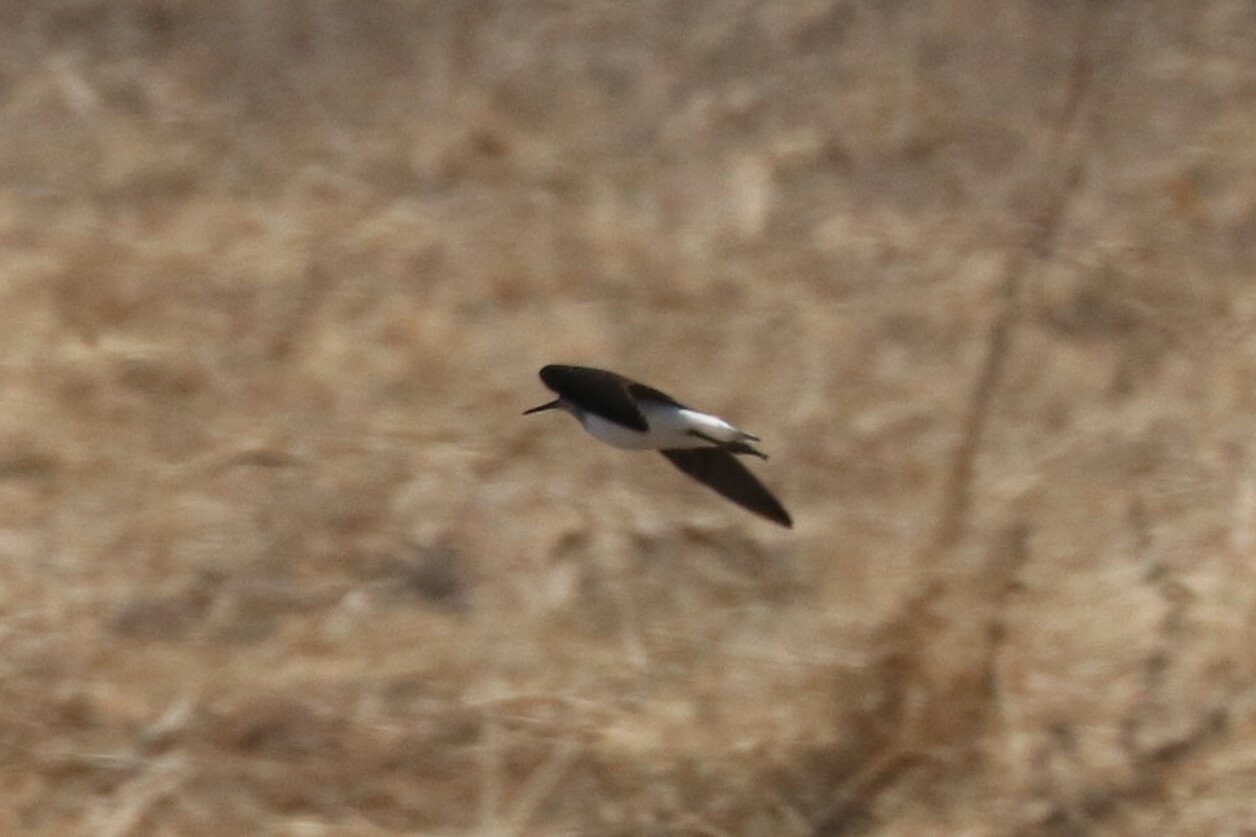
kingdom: Animalia
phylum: Chordata
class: Aves
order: Charadriiformes
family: Scolopacidae
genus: Tringa
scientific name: Tringa ochropus
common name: Green sandpiper
